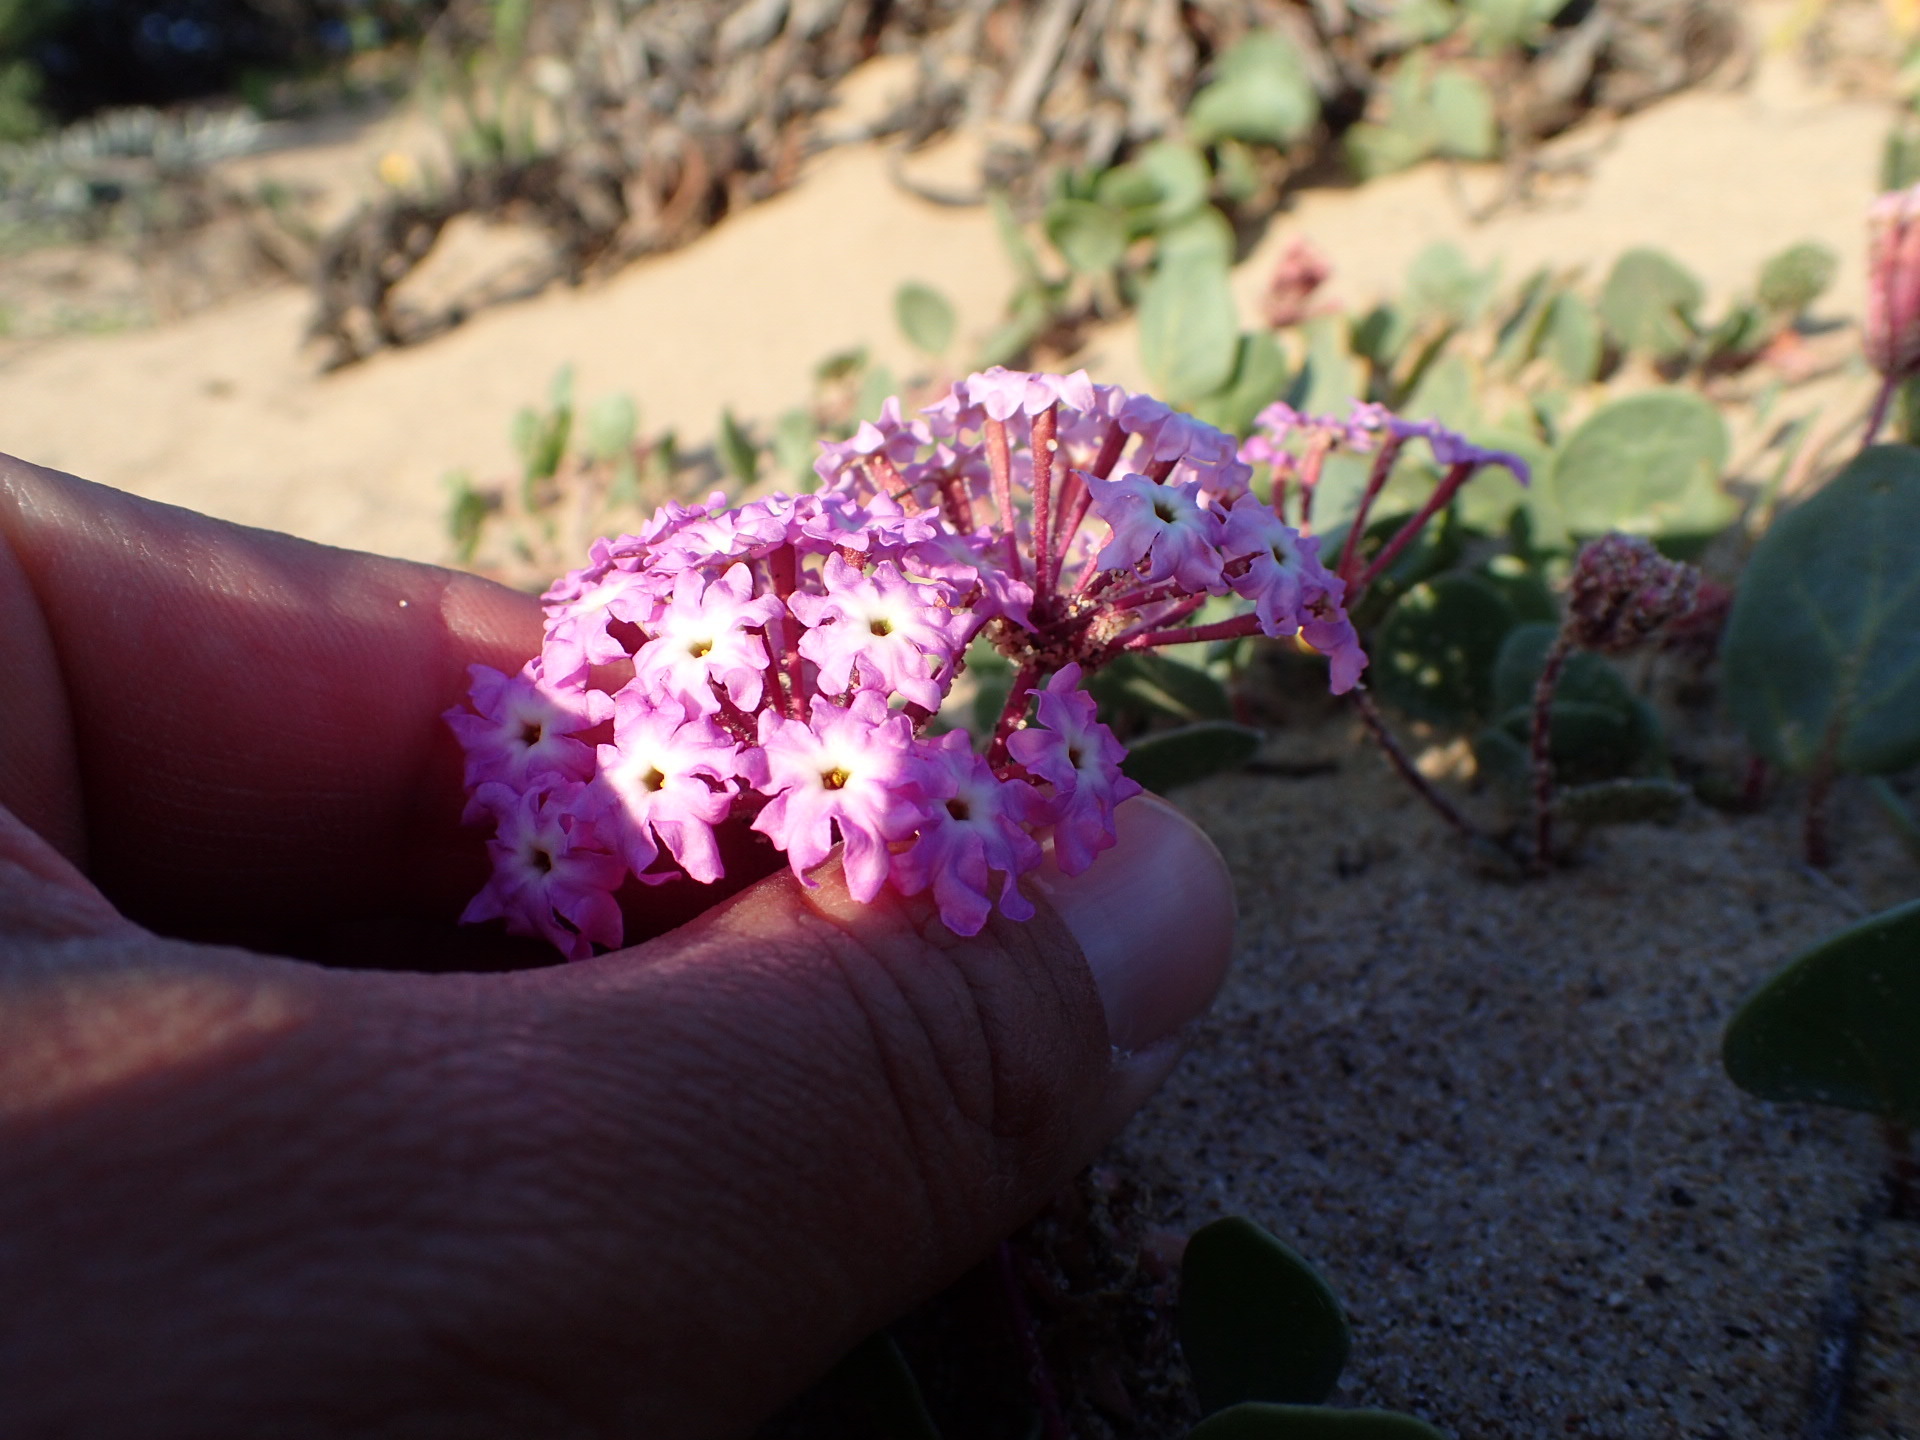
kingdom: Plantae
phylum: Tracheophyta
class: Magnoliopsida
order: Caryophyllales
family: Nyctaginaceae
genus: Abronia
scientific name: Abronia umbellata
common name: Sand-verbena
